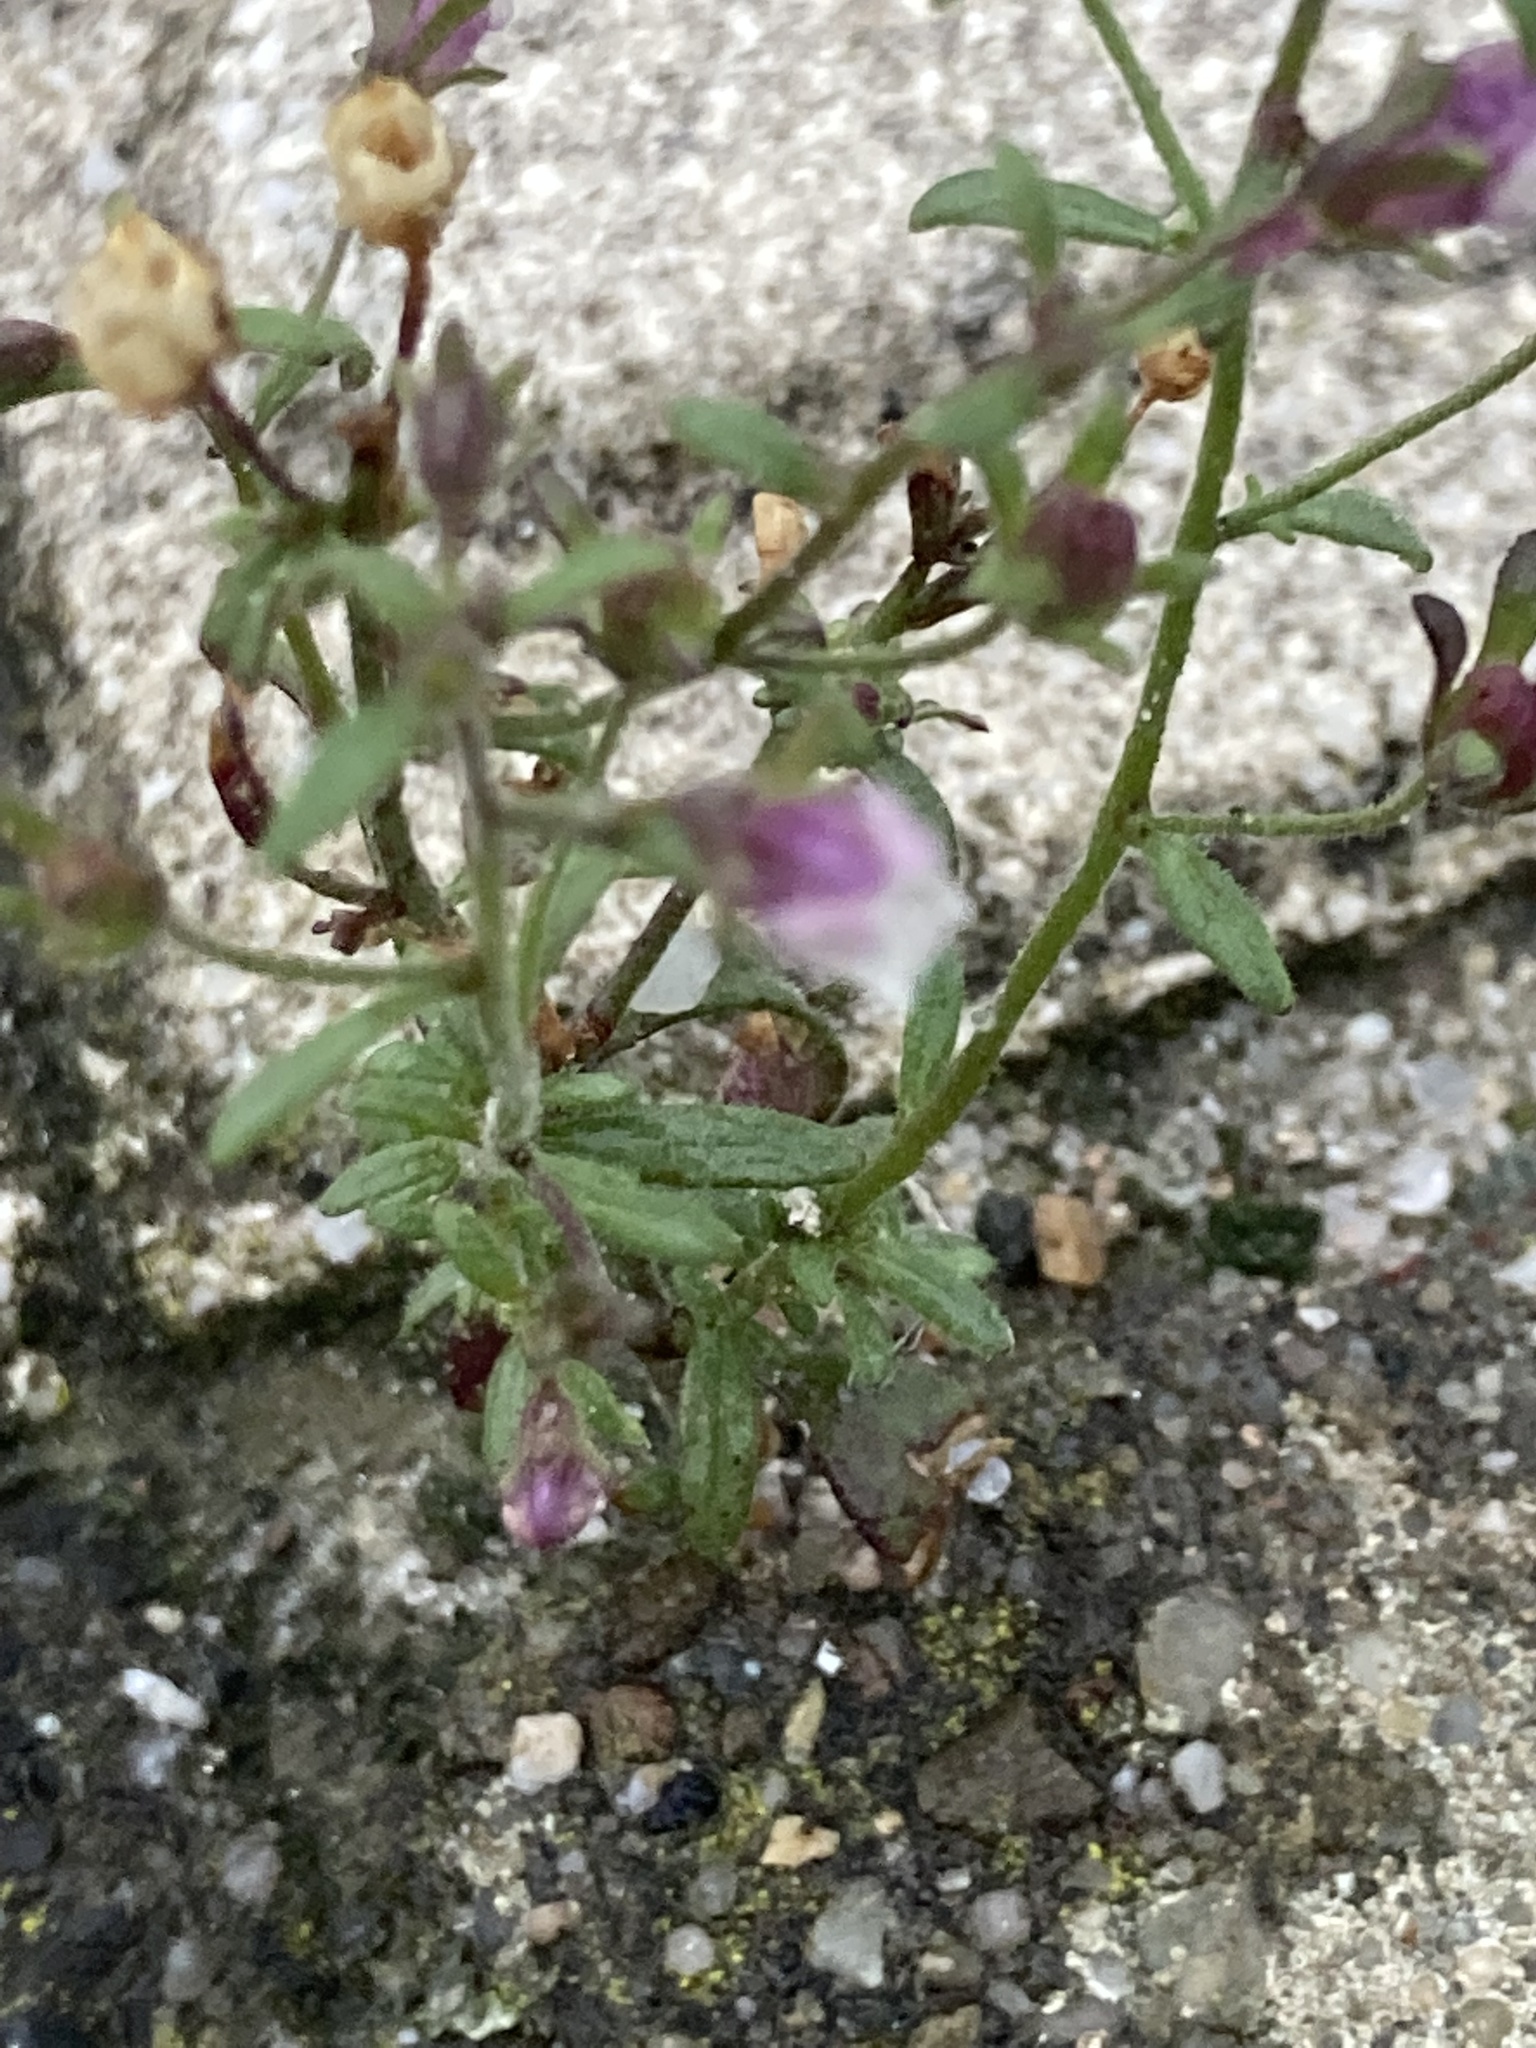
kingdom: Plantae
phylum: Tracheophyta
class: Magnoliopsida
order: Lamiales
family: Plantaginaceae
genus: Chaenorhinum
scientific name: Chaenorhinum minus
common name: Dwarf snapdragon
